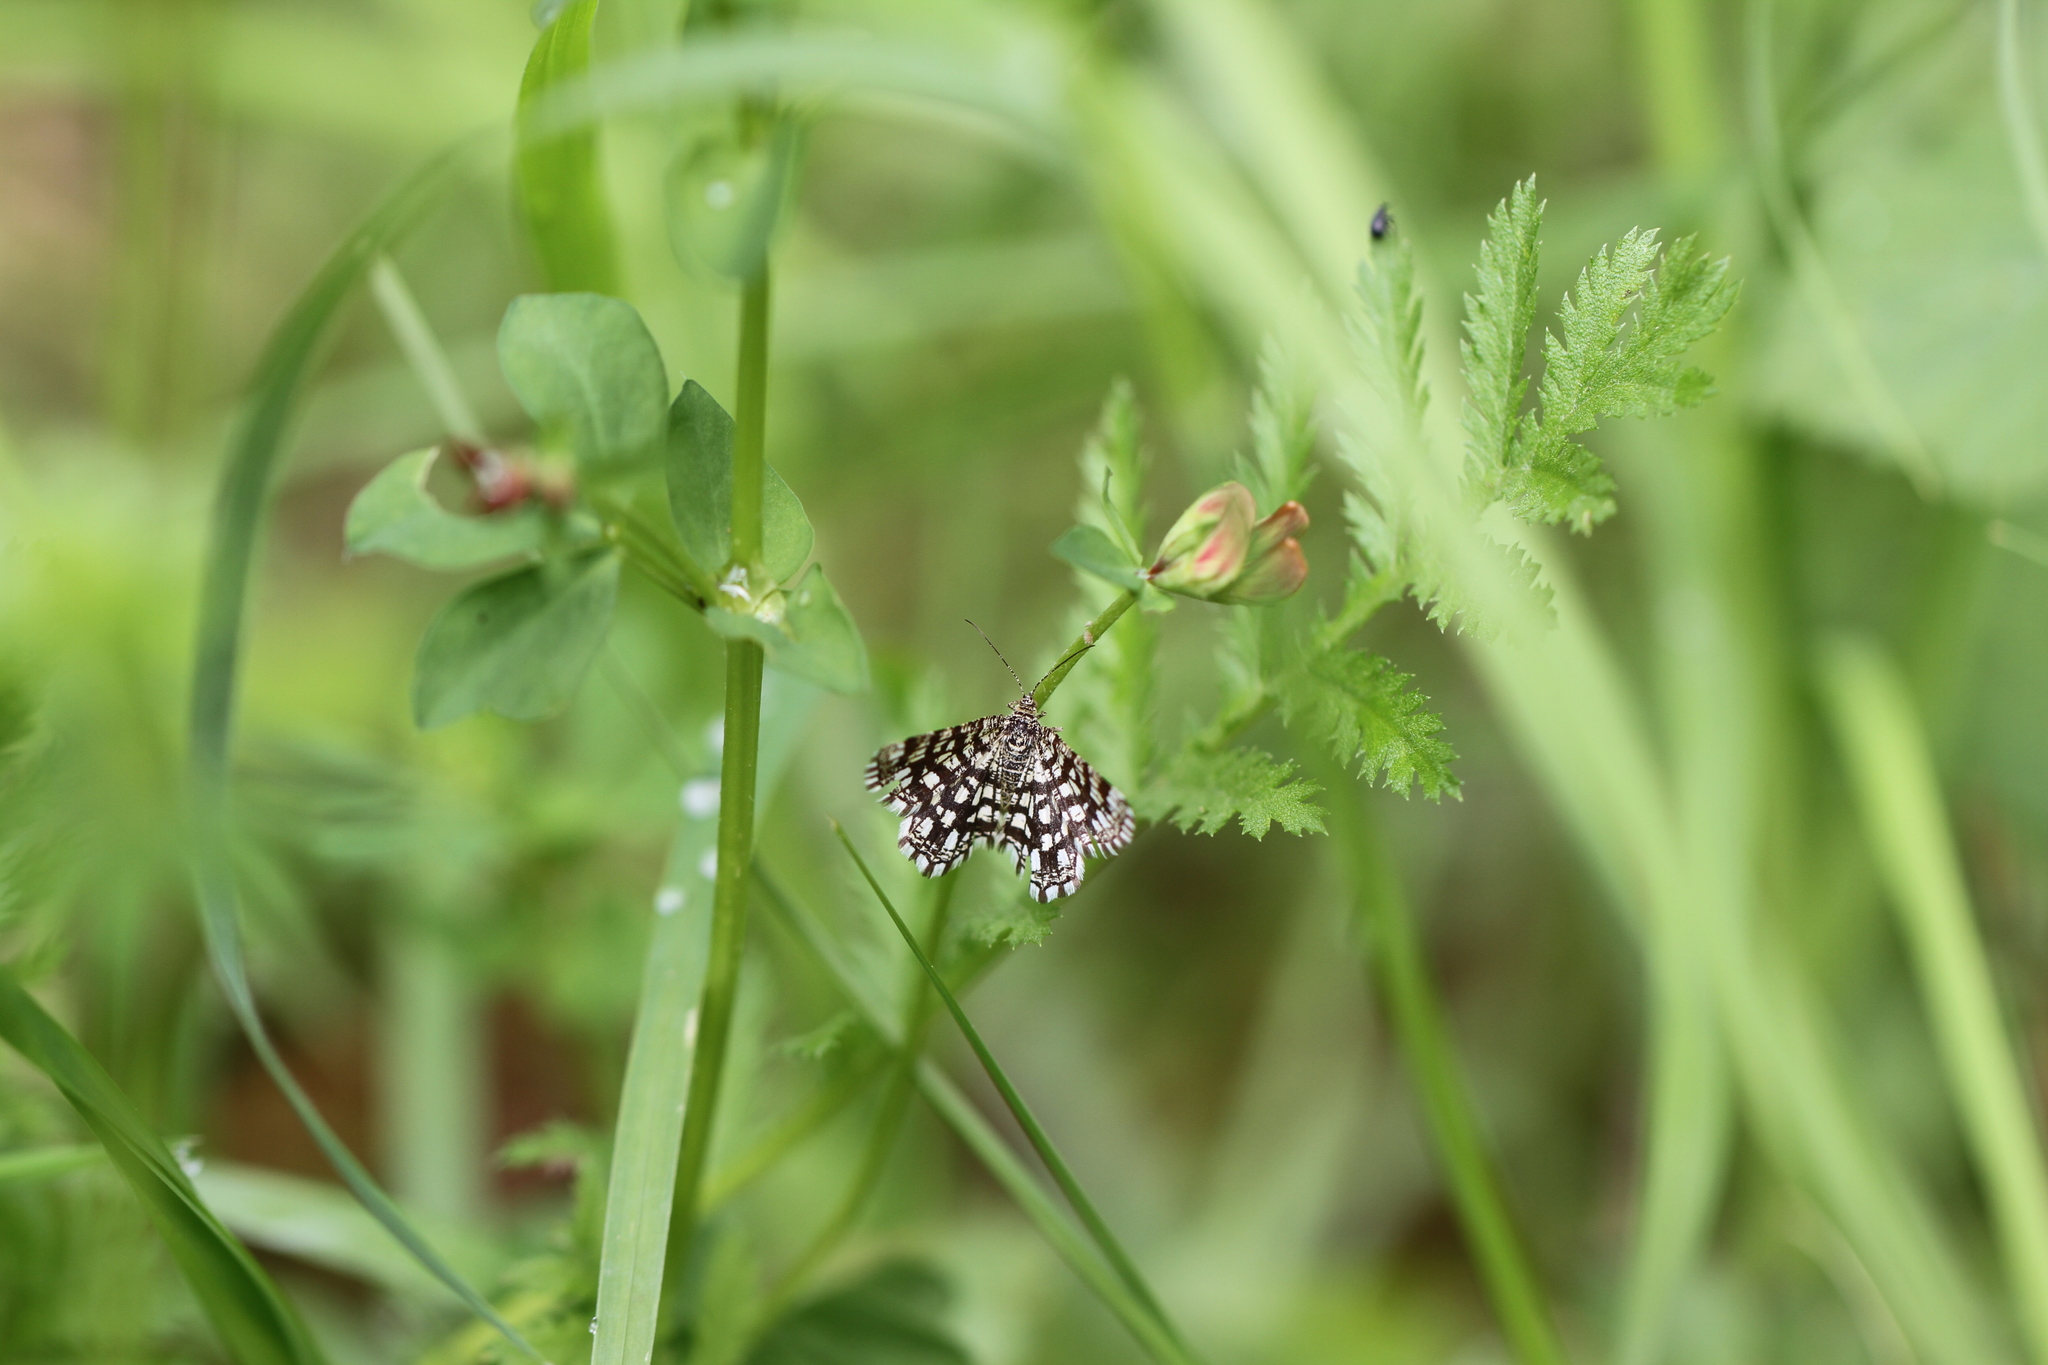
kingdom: Animalia
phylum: Arthropoda
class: Insecta
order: Lepidoptera
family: Geometridae
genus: Chiasmia
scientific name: Chiasmia clathrata
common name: Latticed heath
